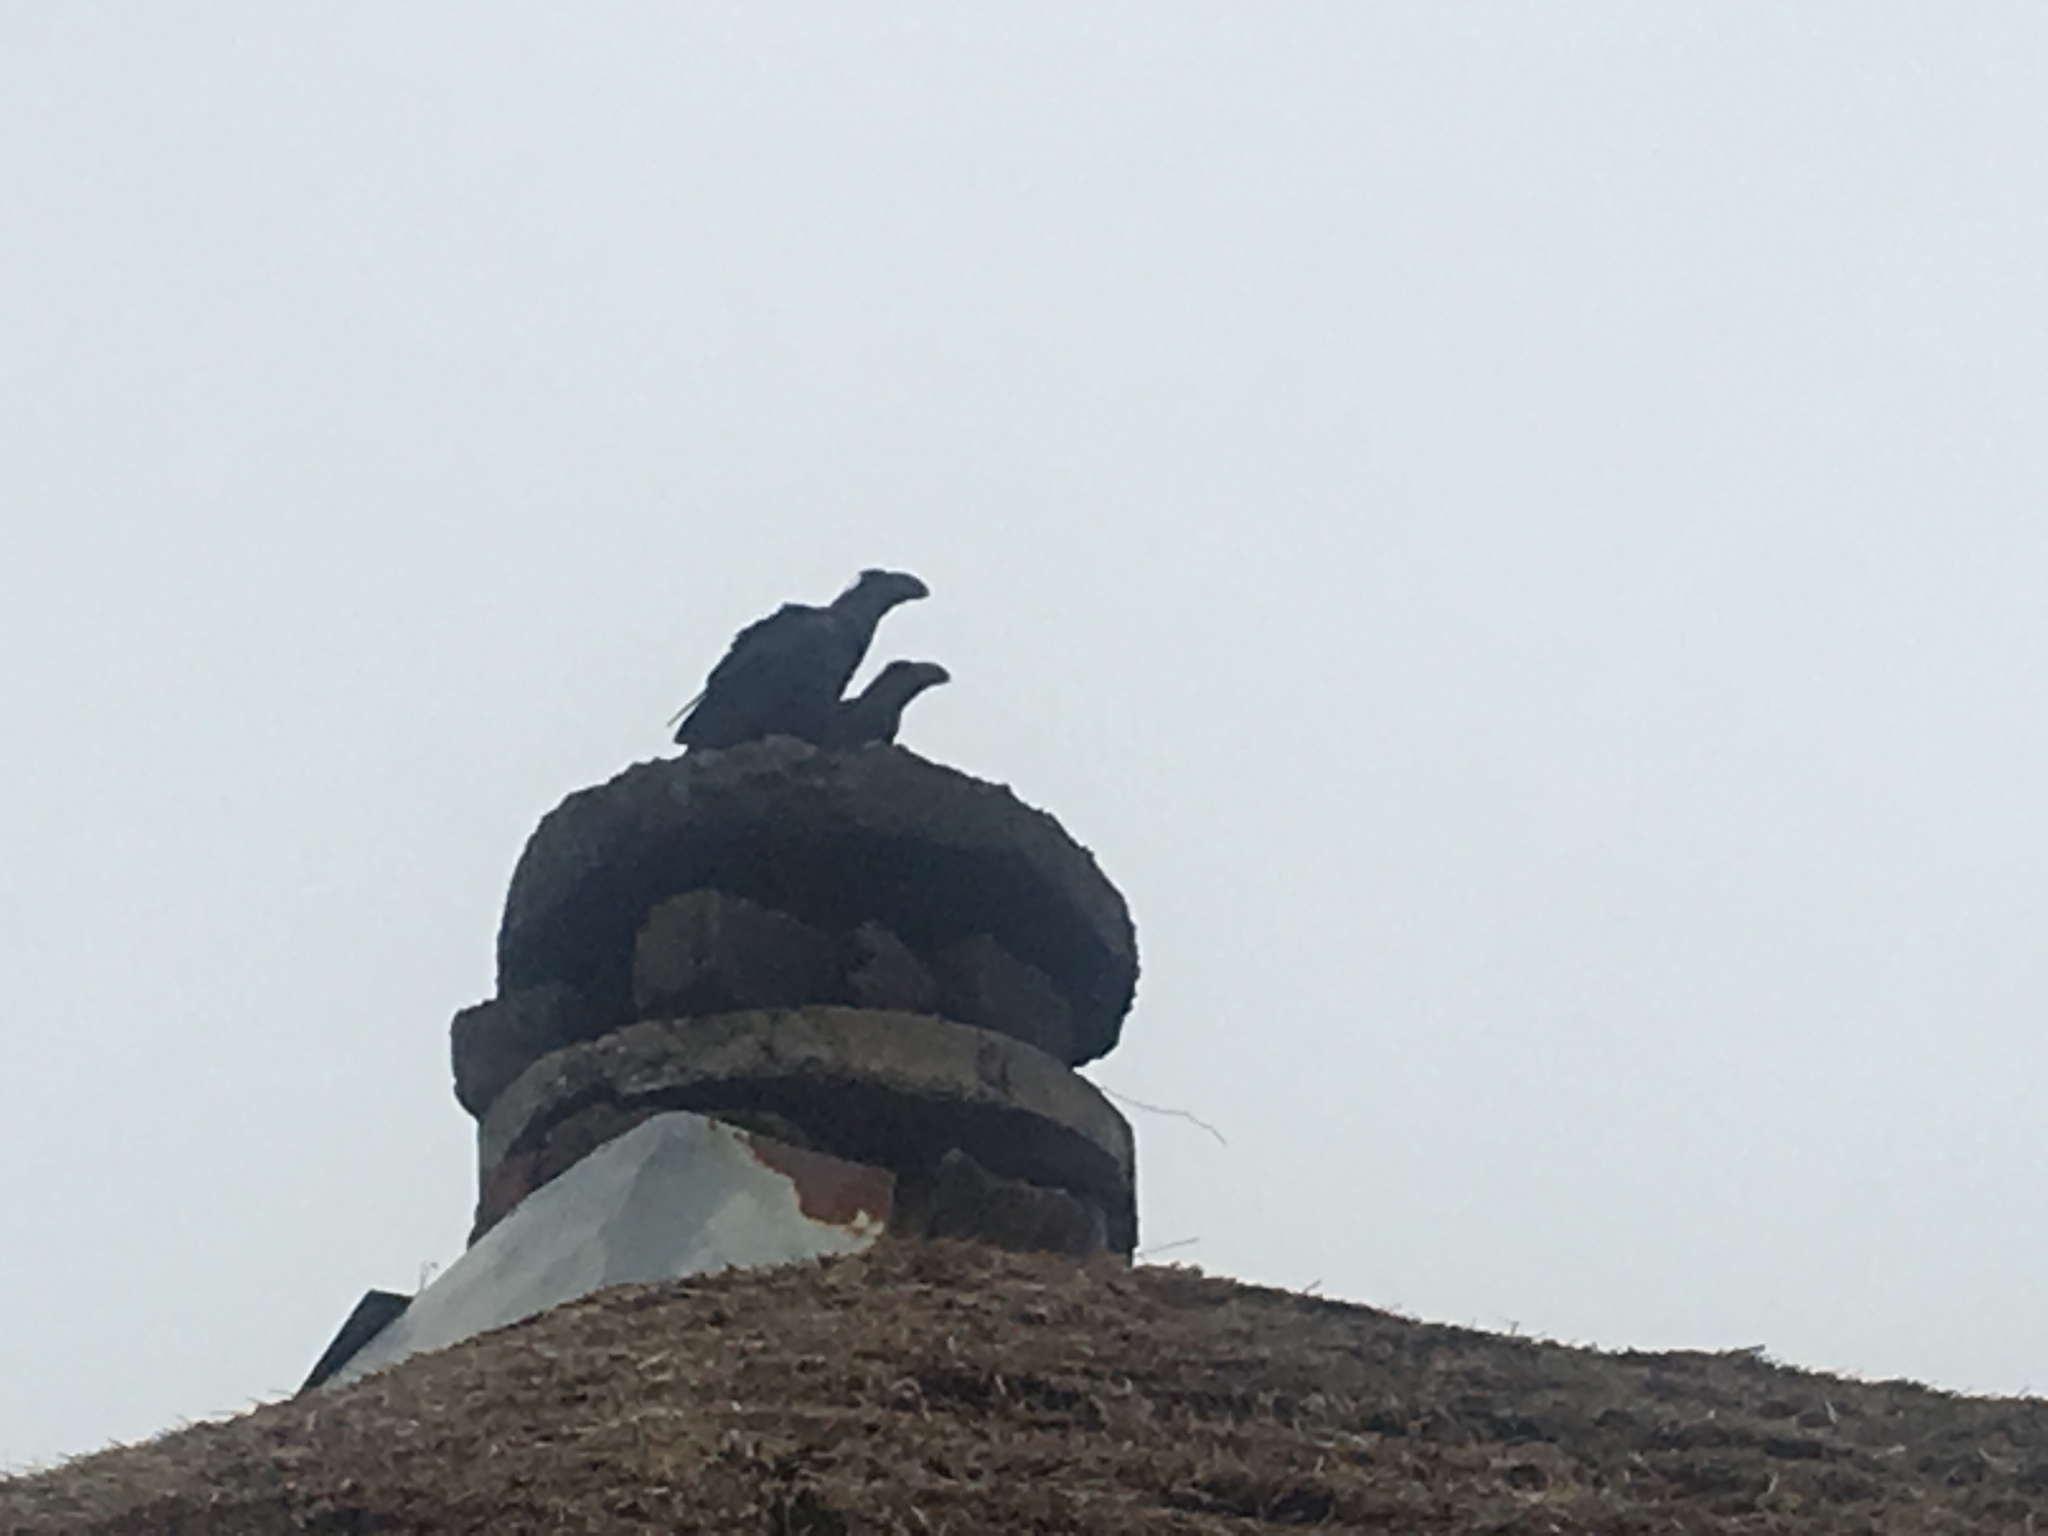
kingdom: Animalia
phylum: Chordata
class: Aves
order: Passeriformes
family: Corvidae
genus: Corvus
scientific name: Corvus crassirostris
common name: Thick-billed raven
